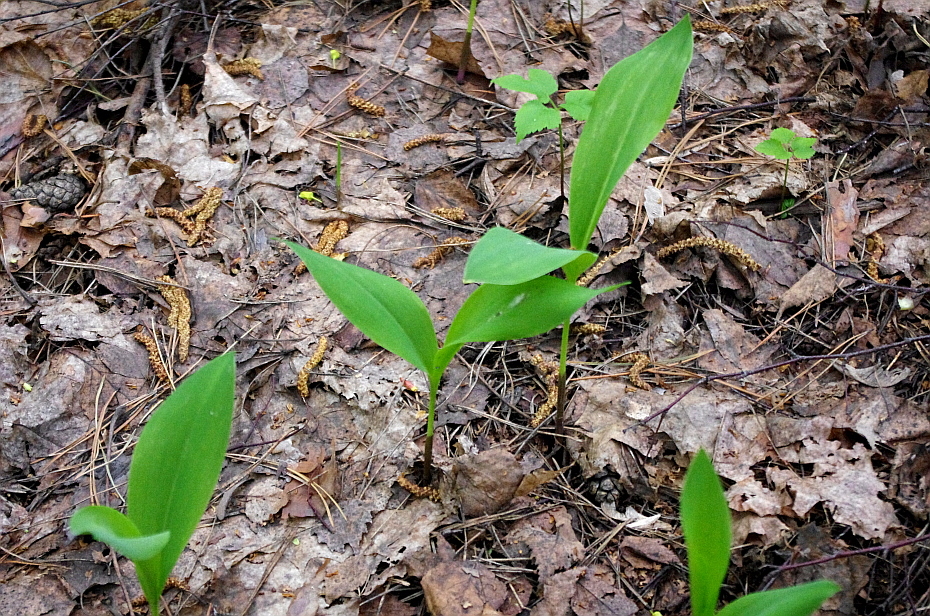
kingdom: Plantae
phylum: Tracheophyta
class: Liliopsida
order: Asparagales
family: Asparagaceae
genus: Convallaria
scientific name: Convallaria majalis
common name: Lily-of-the-valley
